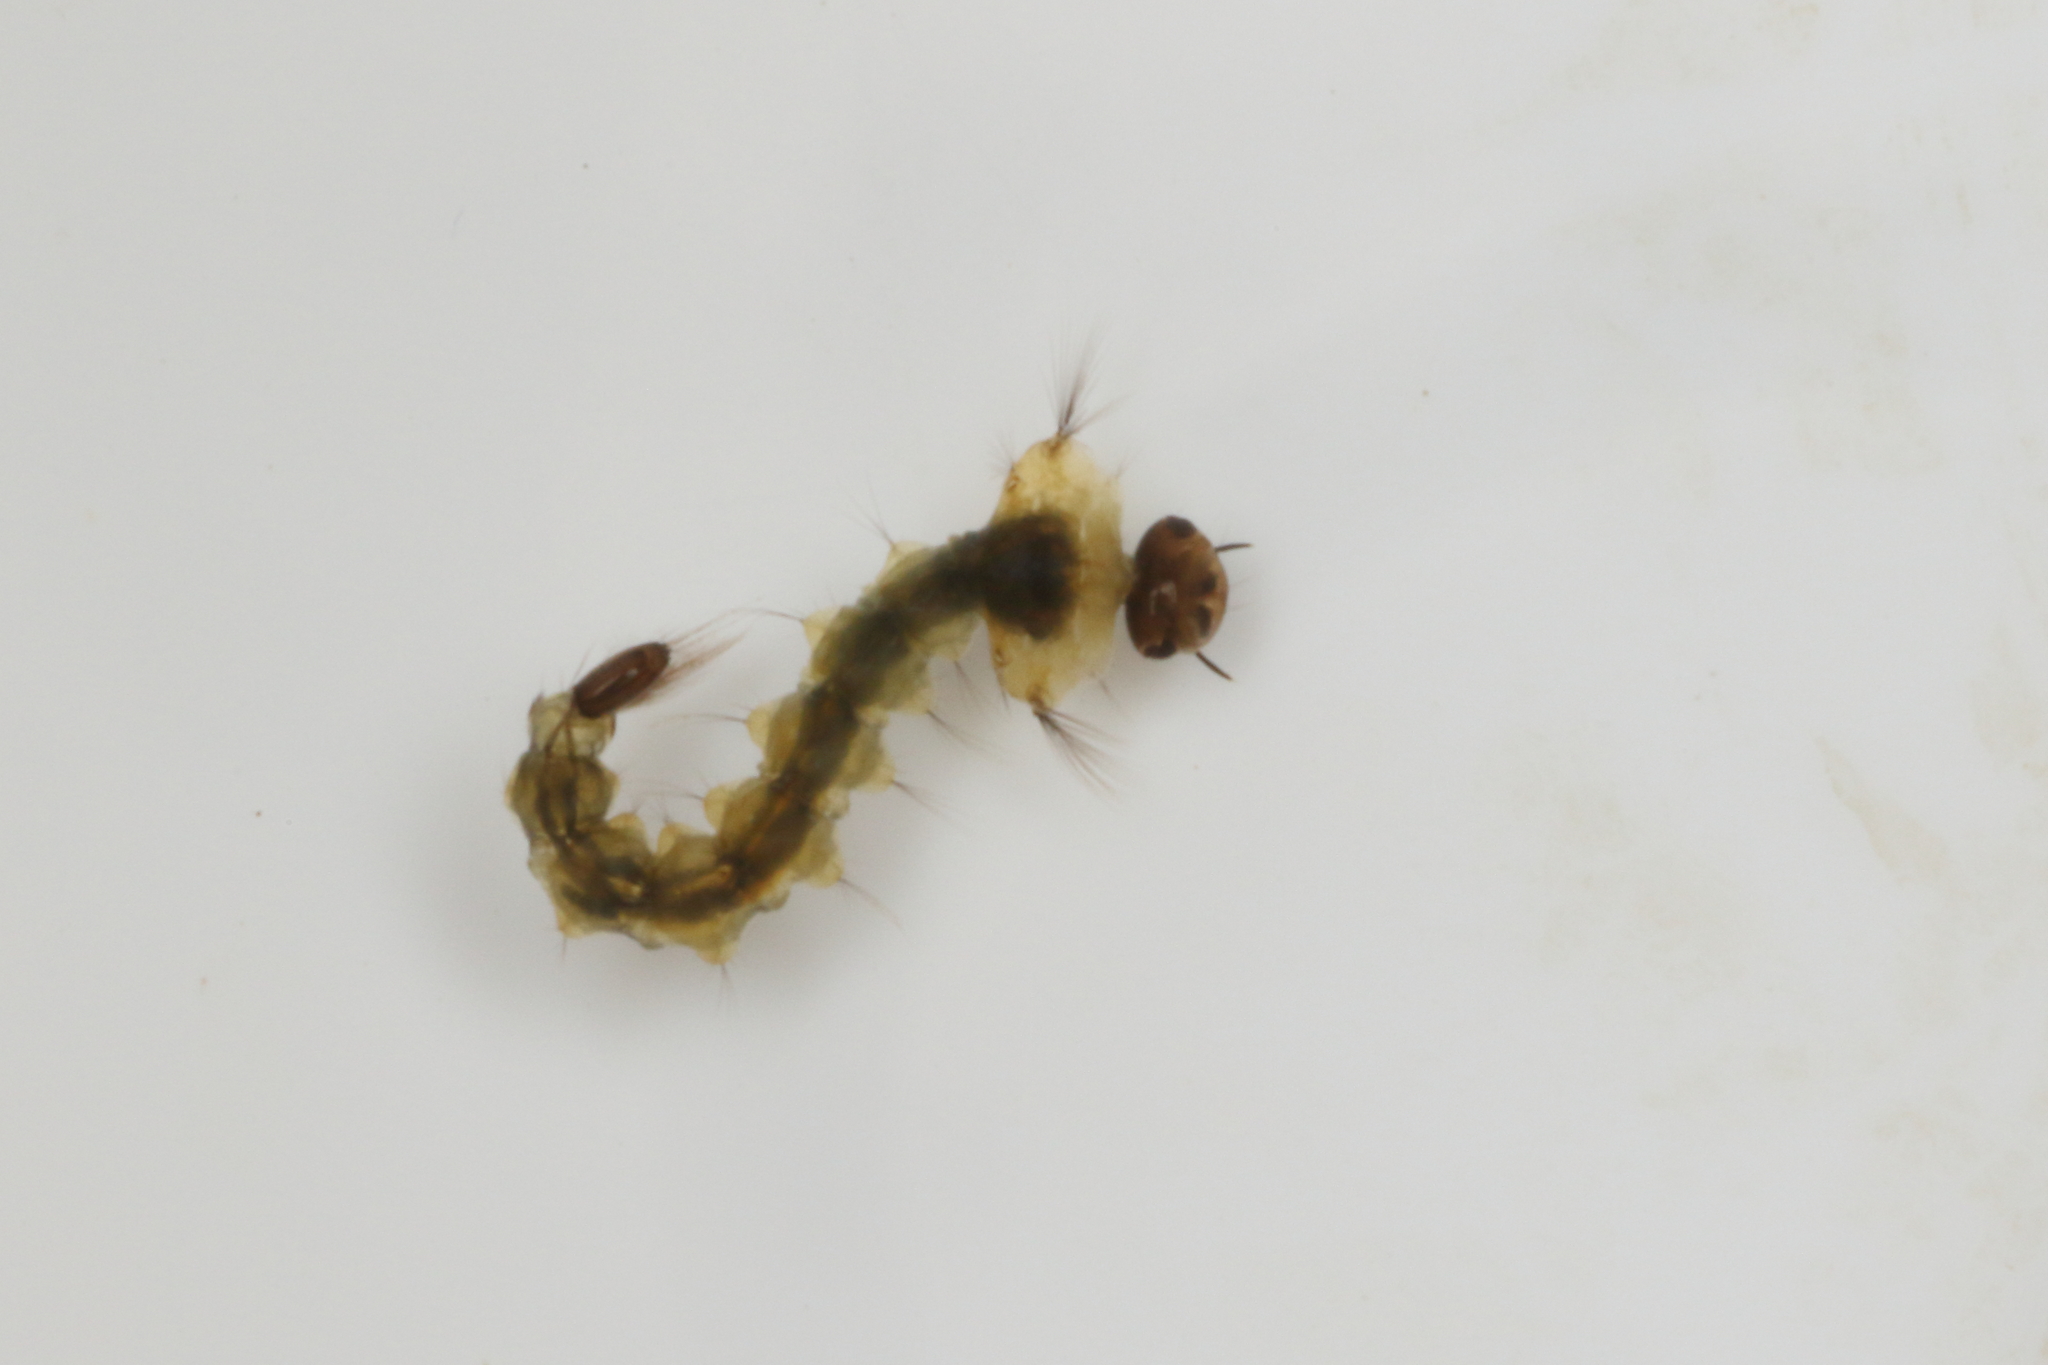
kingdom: Animalia
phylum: Arthropoda
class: Insecta
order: Diptera
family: Culicidae
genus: Opifex
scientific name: Opifex fuscus
